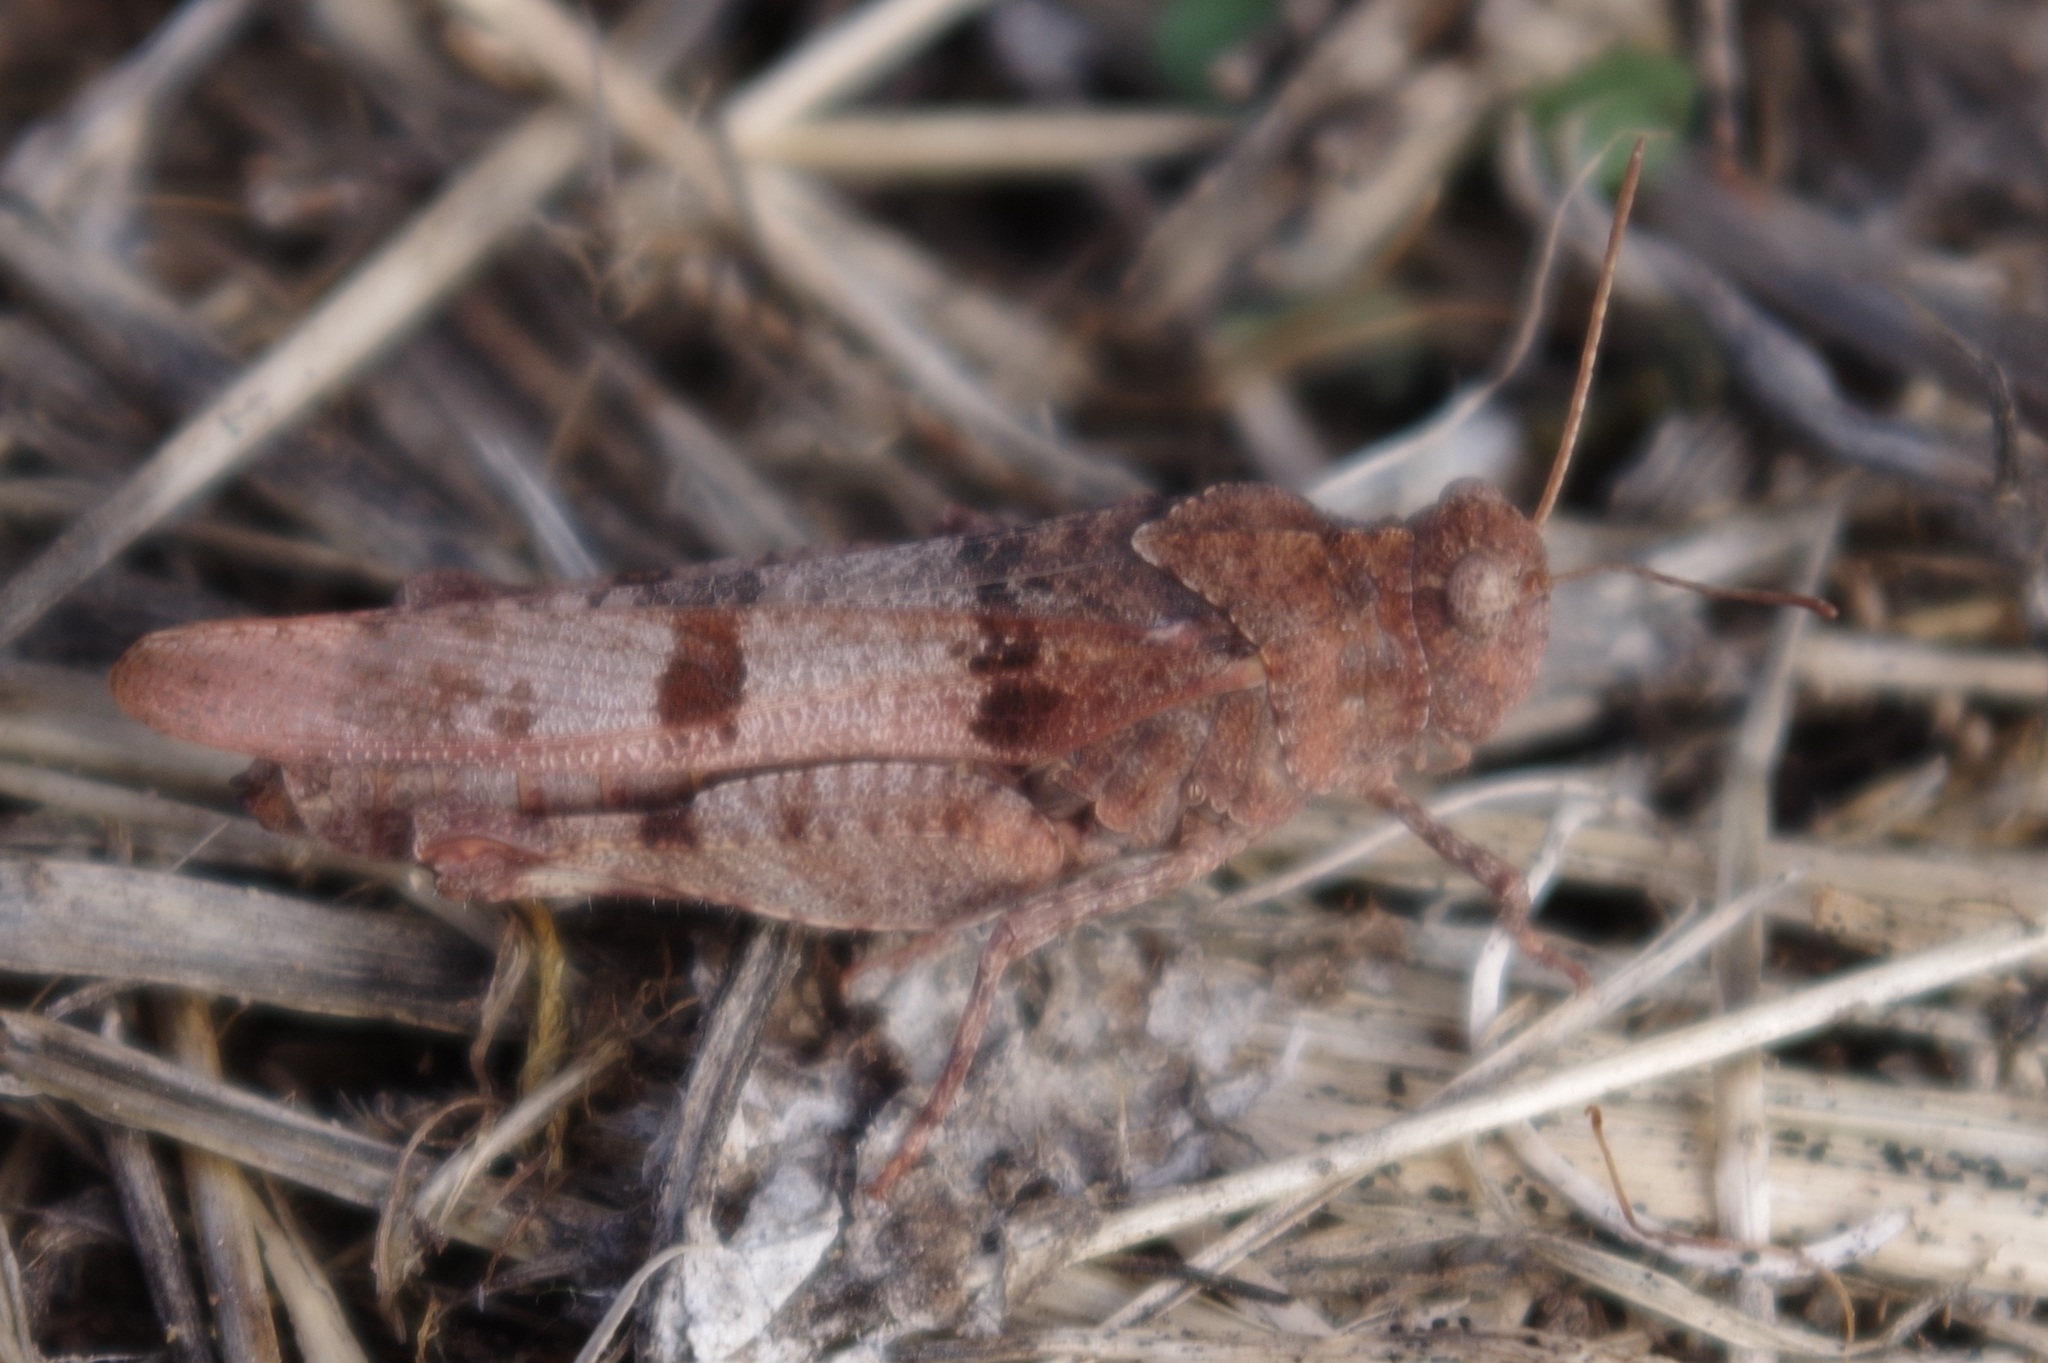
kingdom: Animalia
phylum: Arthropoda
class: Insecta
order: Orthoptera
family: Acrididae
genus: Oedipoda
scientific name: Oedipoda caerulescens
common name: Blue-winged grasshopper
